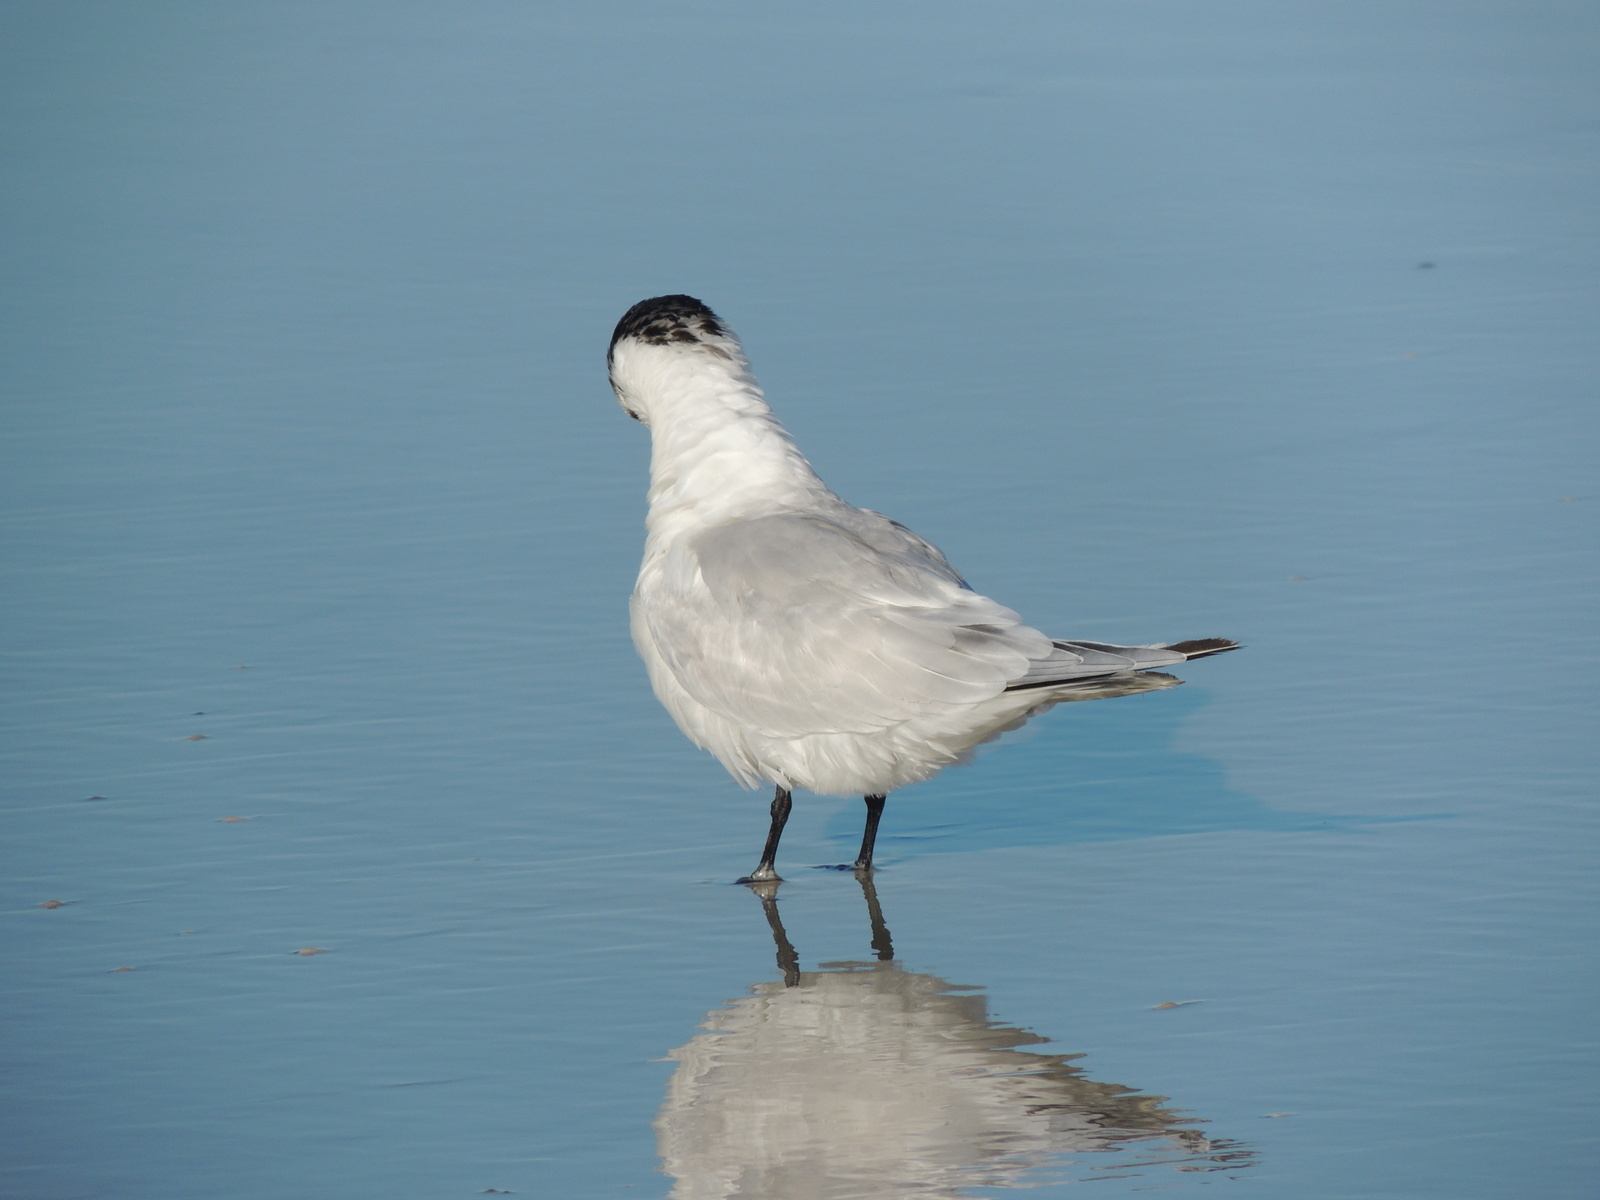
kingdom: Animalia
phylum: Chordata
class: Aves
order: Charadriiformes
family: Laridae
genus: Thalasseus
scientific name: Thalasseus maximus
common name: Royal tern
